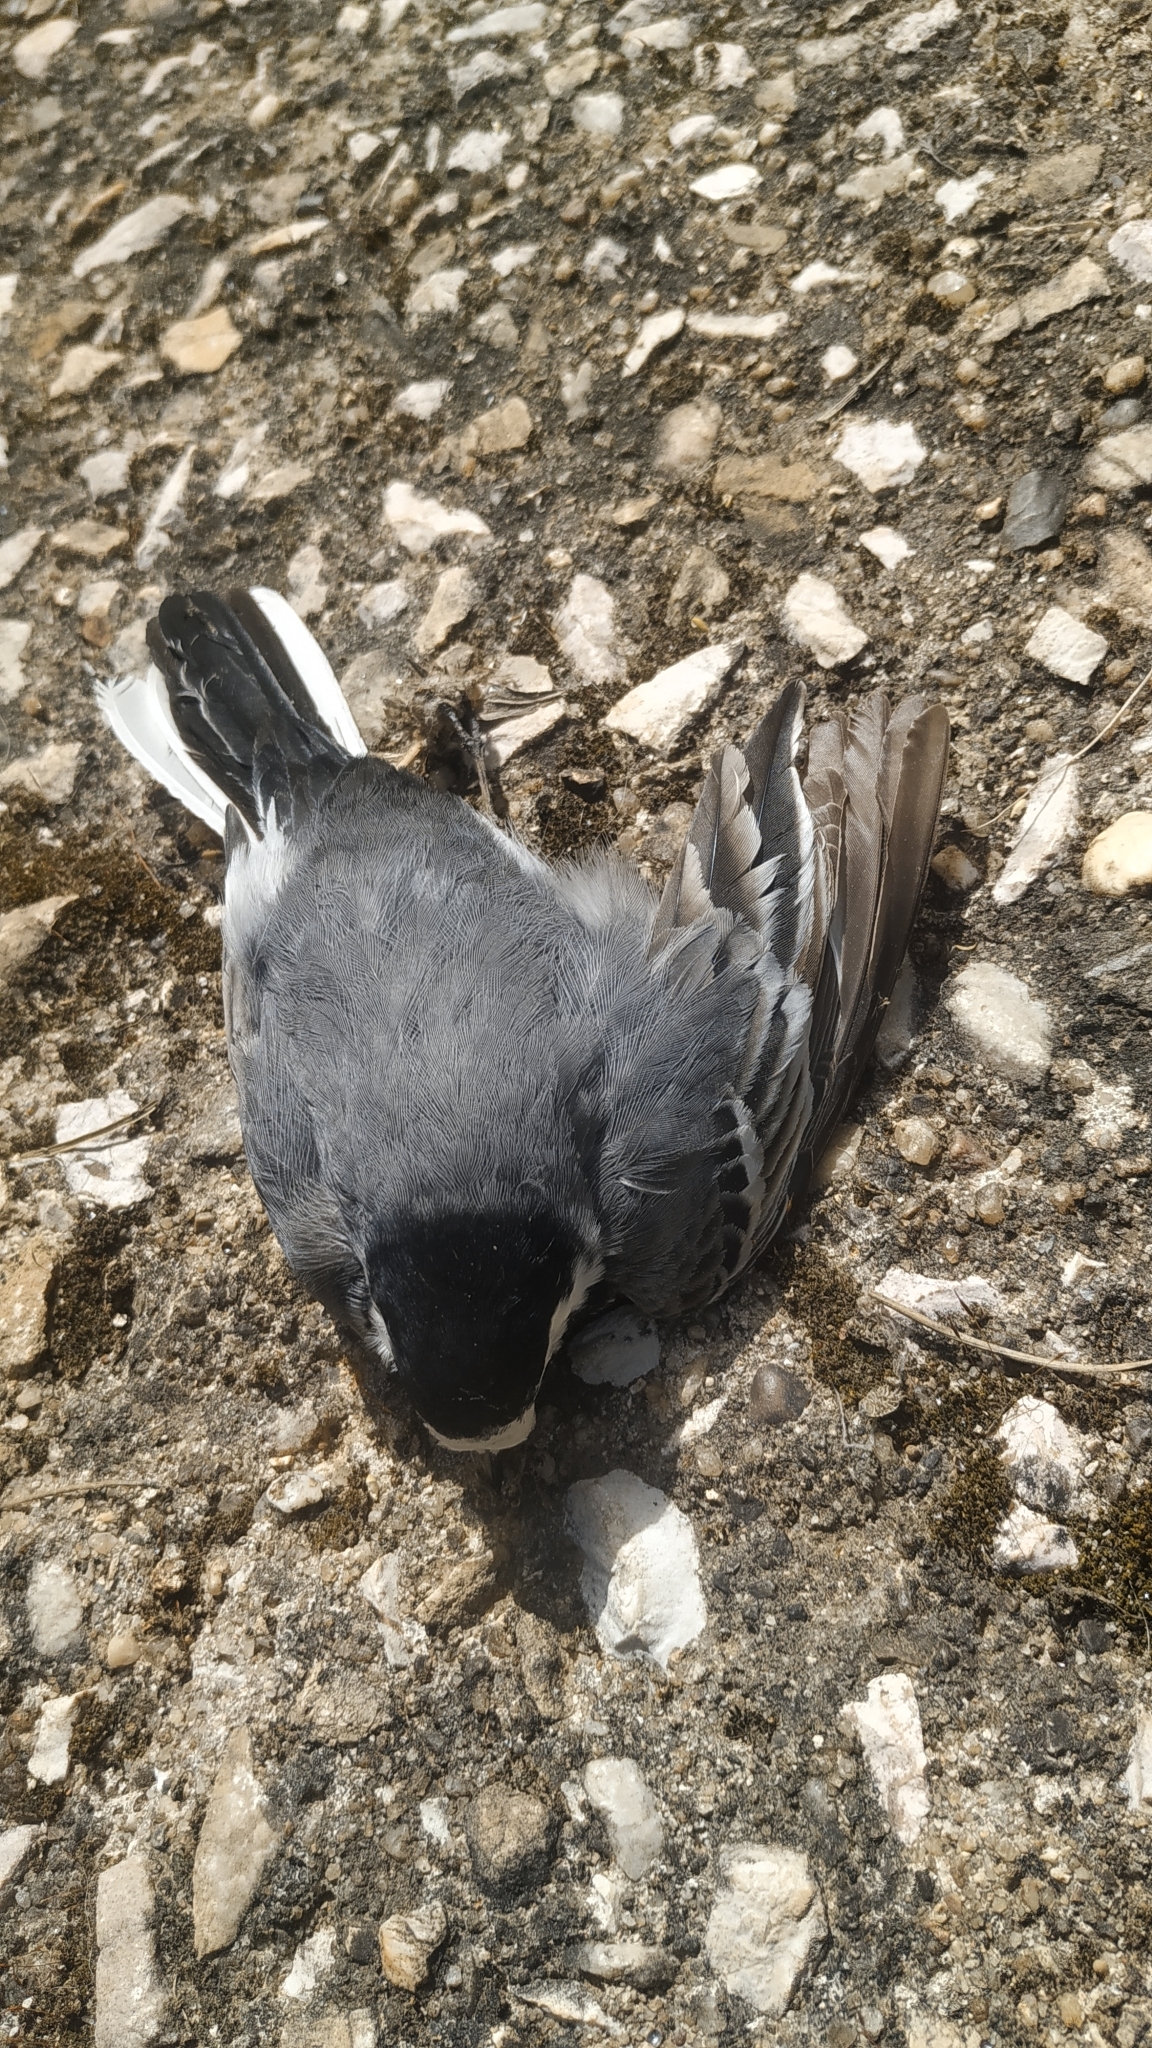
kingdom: Animalia
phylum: Chordata
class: Aves
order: Passeriformes
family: Motacillidae
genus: Motacilla
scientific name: Motacilla alba
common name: White wagtail
